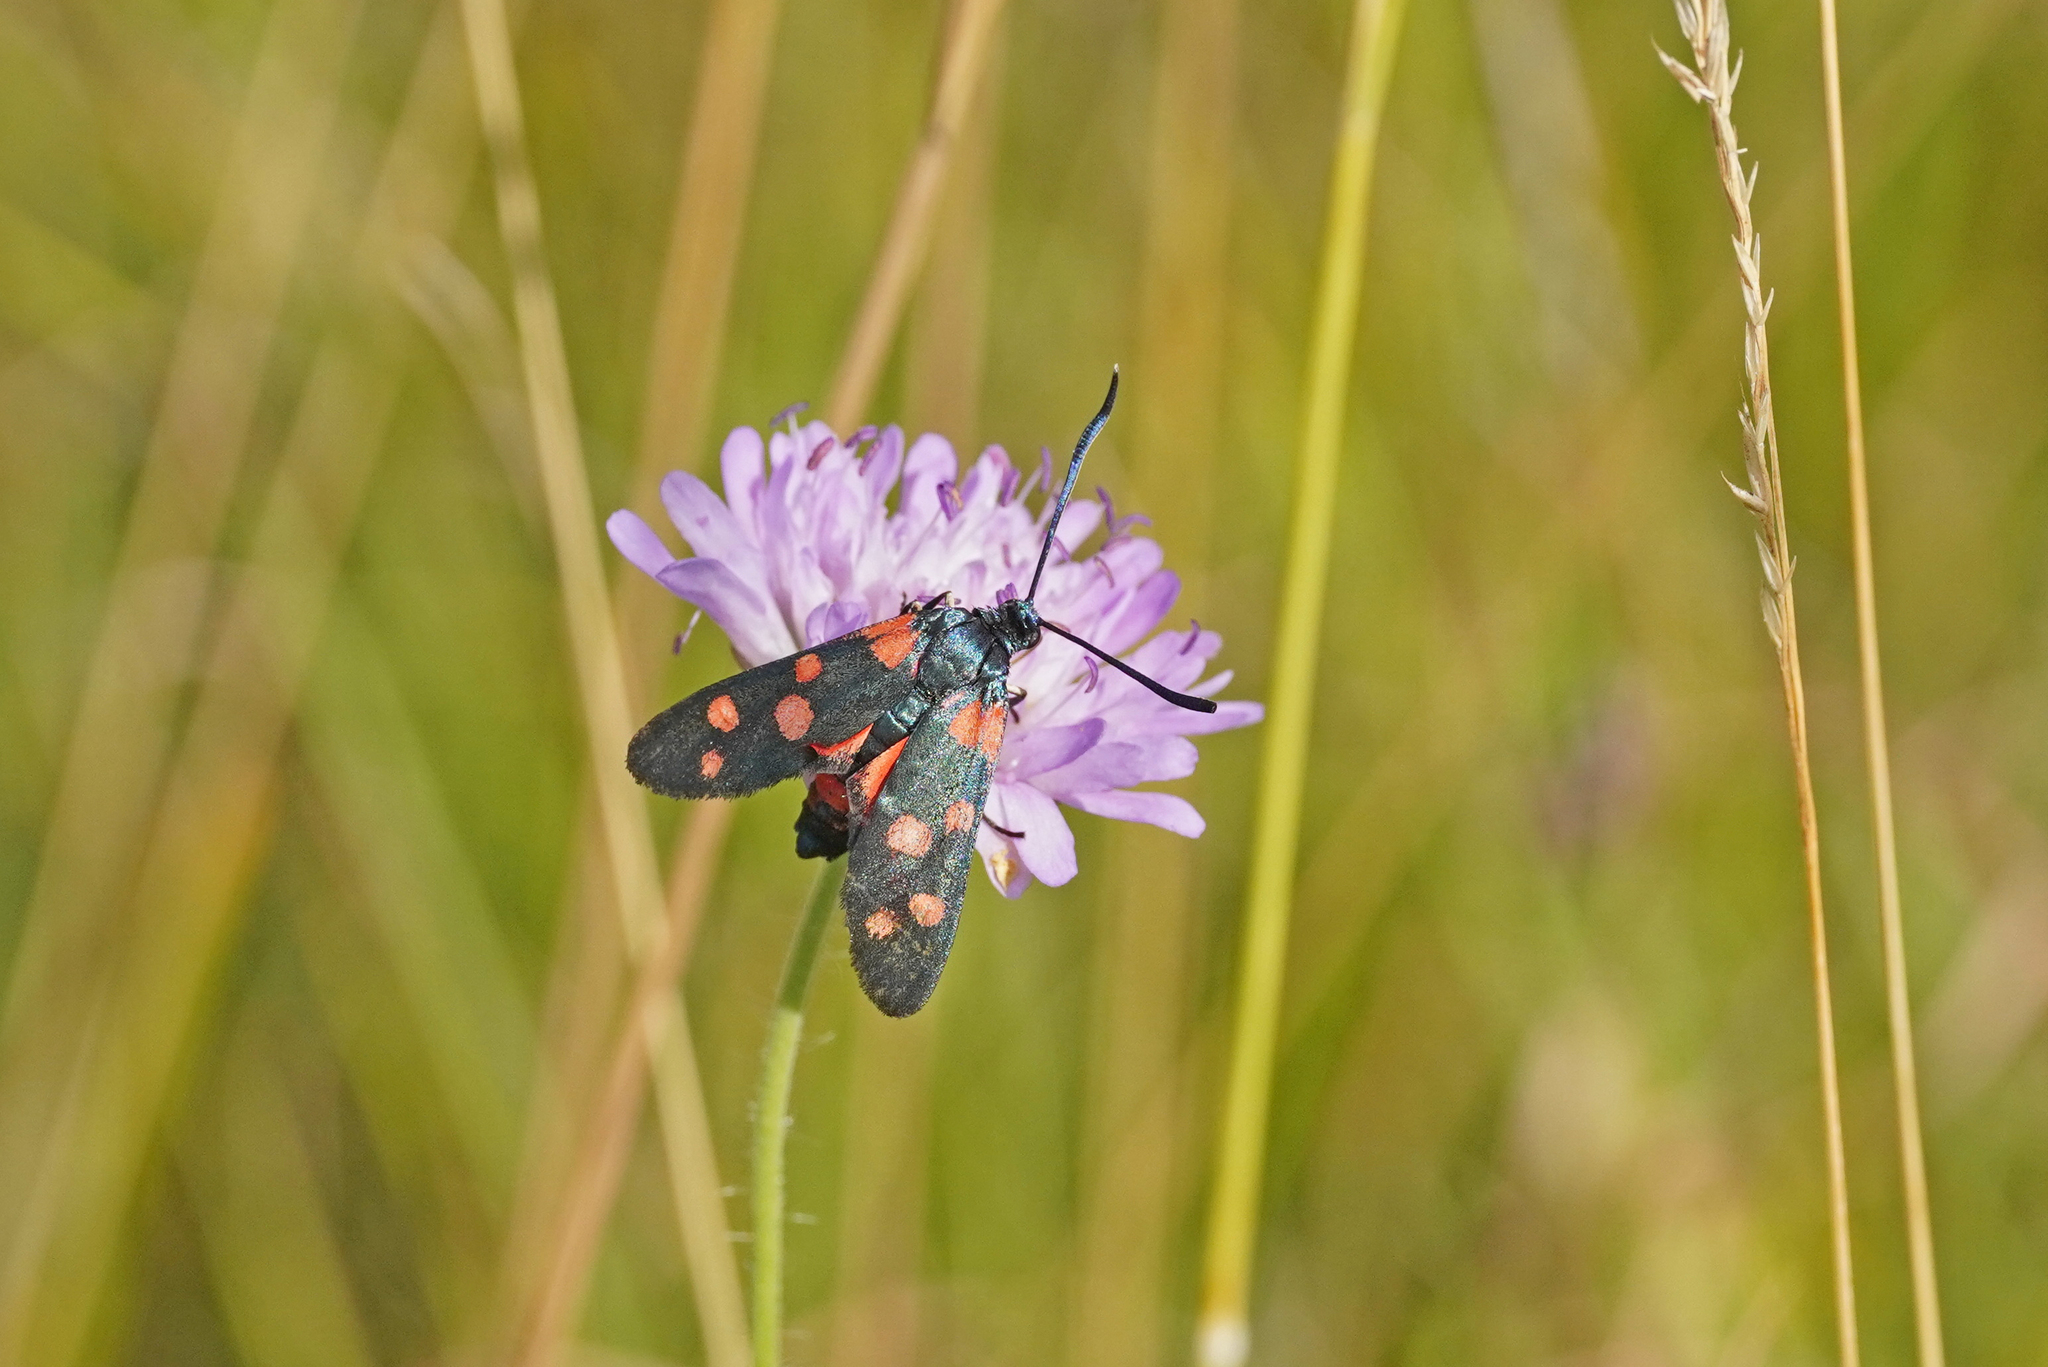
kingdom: Animalia
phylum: Arthropoda
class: Insecta
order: Lepidoptera
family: Zygaenidae
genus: Zygaena
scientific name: Zygaena ephialtes
